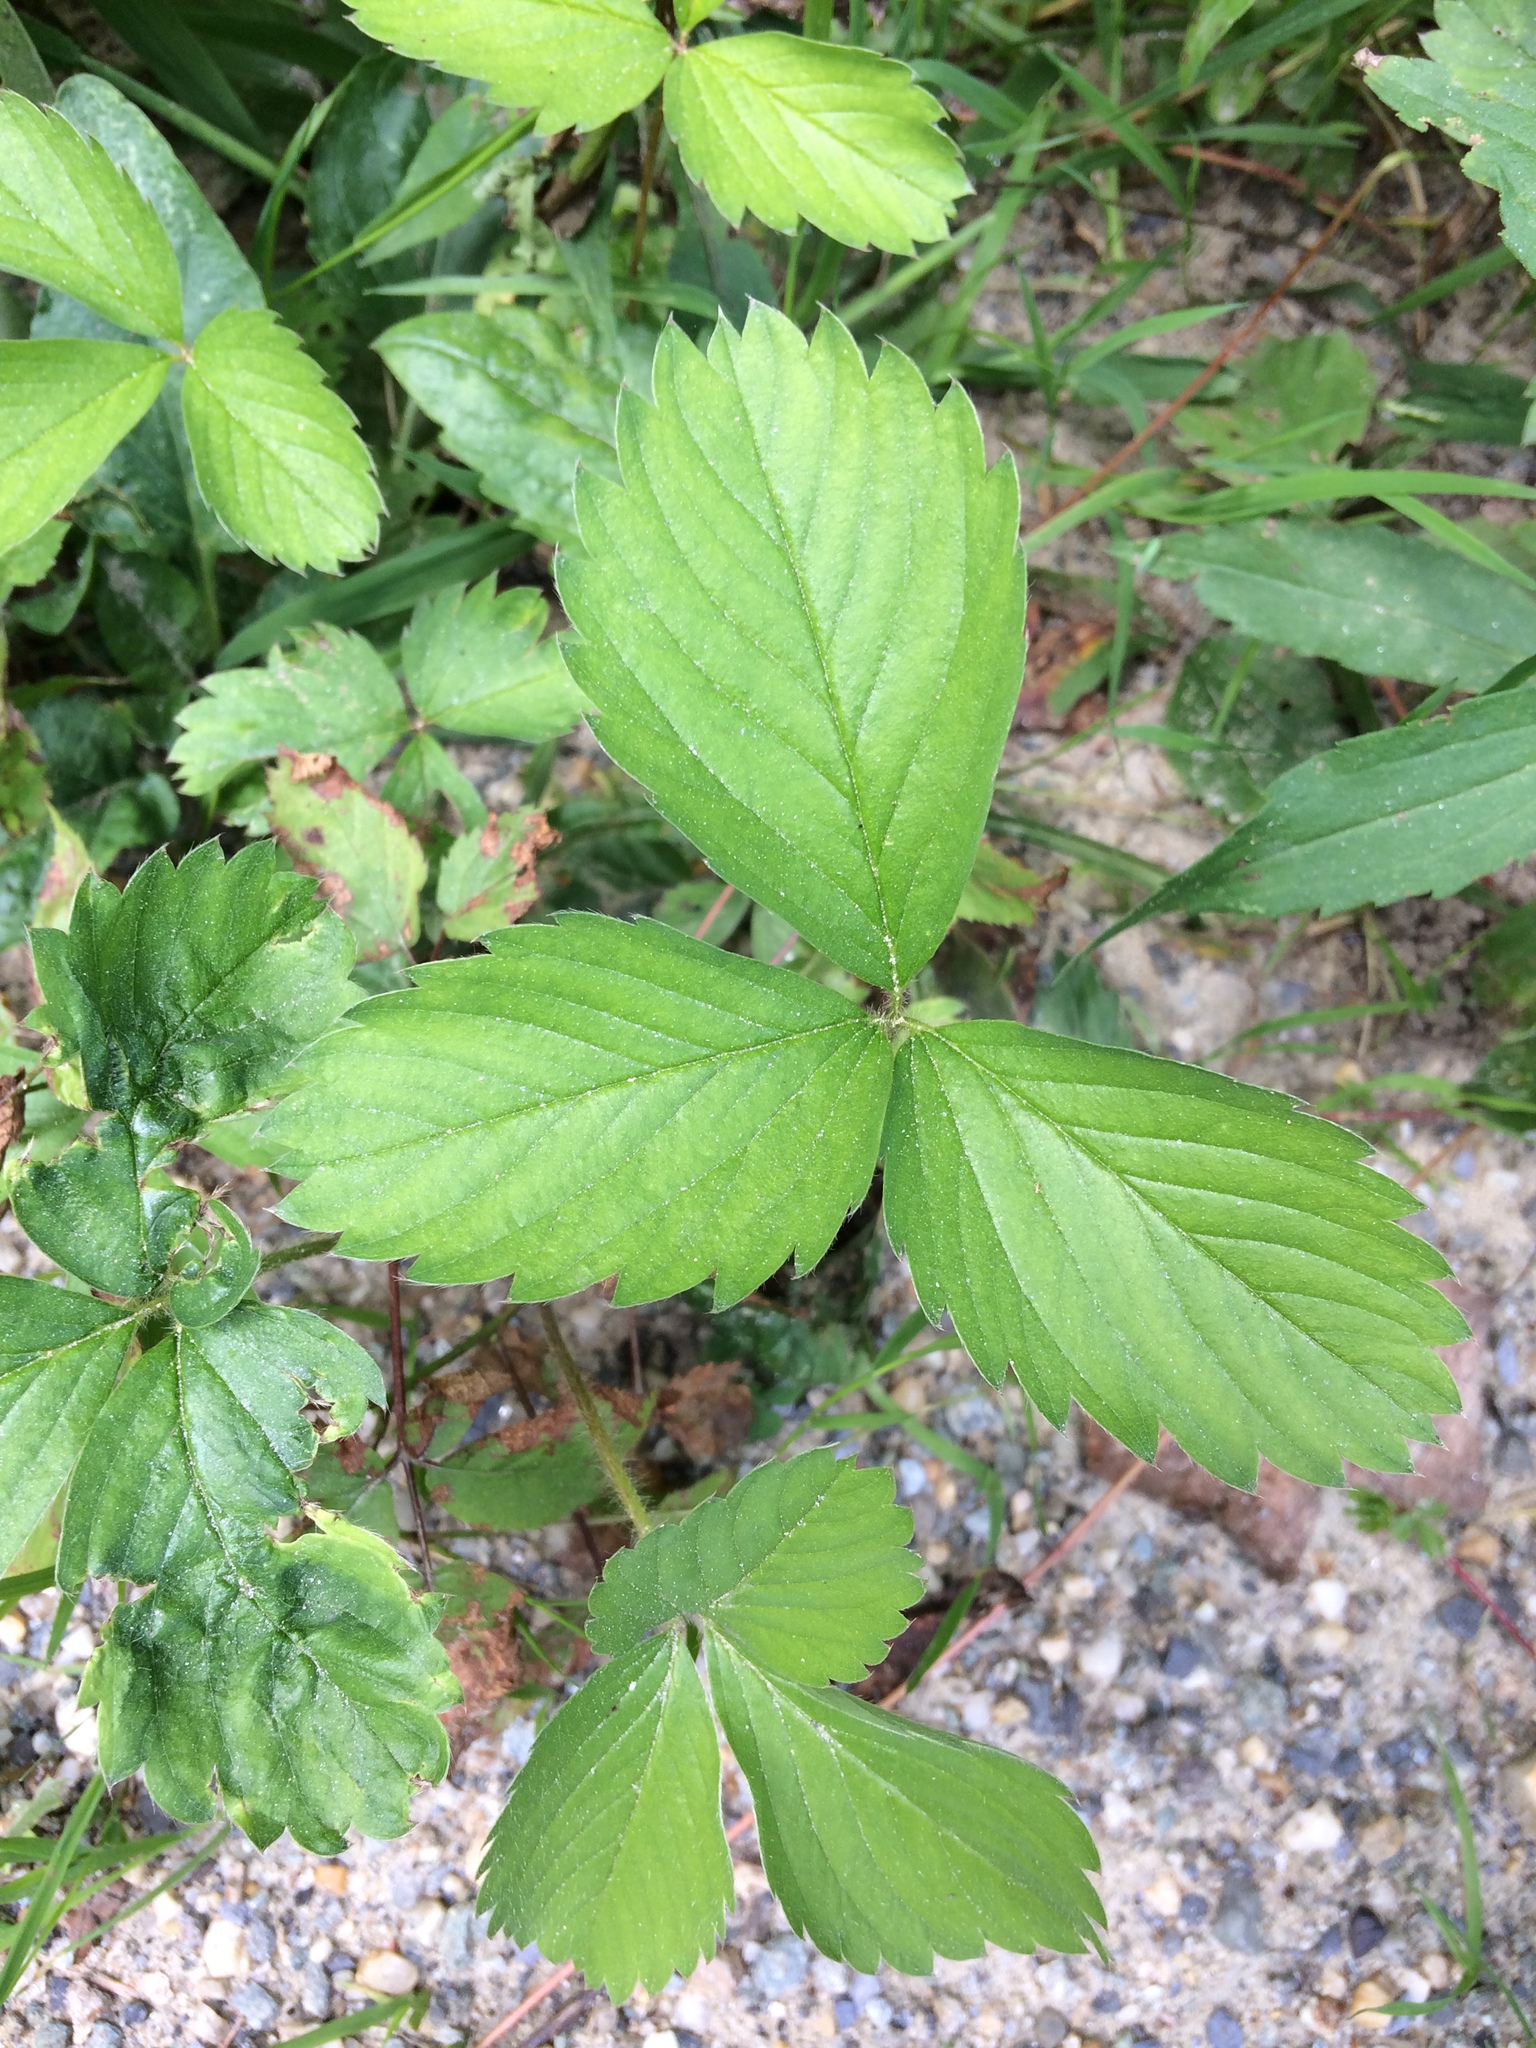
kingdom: Plantae
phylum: Tracheophyta
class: Magnoliopsida
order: Rosales
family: Rosaceae
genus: Fragaria
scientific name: Fragaria virginiana
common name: Thickleaved wild strawberry
